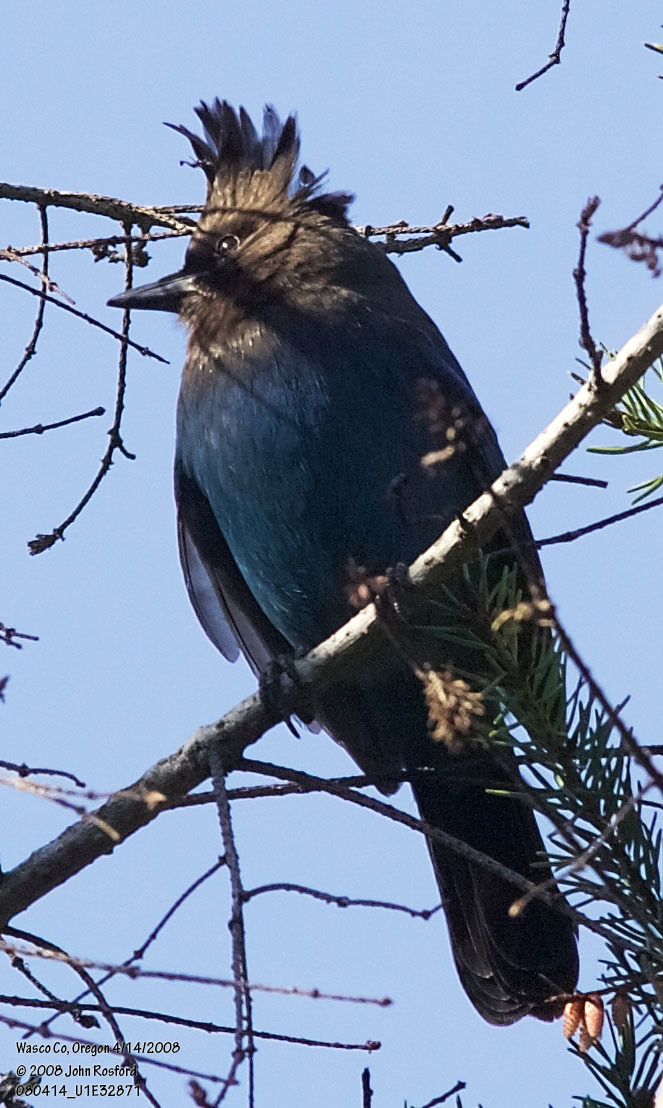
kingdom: Animalia
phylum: Chordata
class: Aves
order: Passeriformes
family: Corvidae
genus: Cyanocitta
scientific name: Cyanocitta stelleri
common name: Steller's jay
